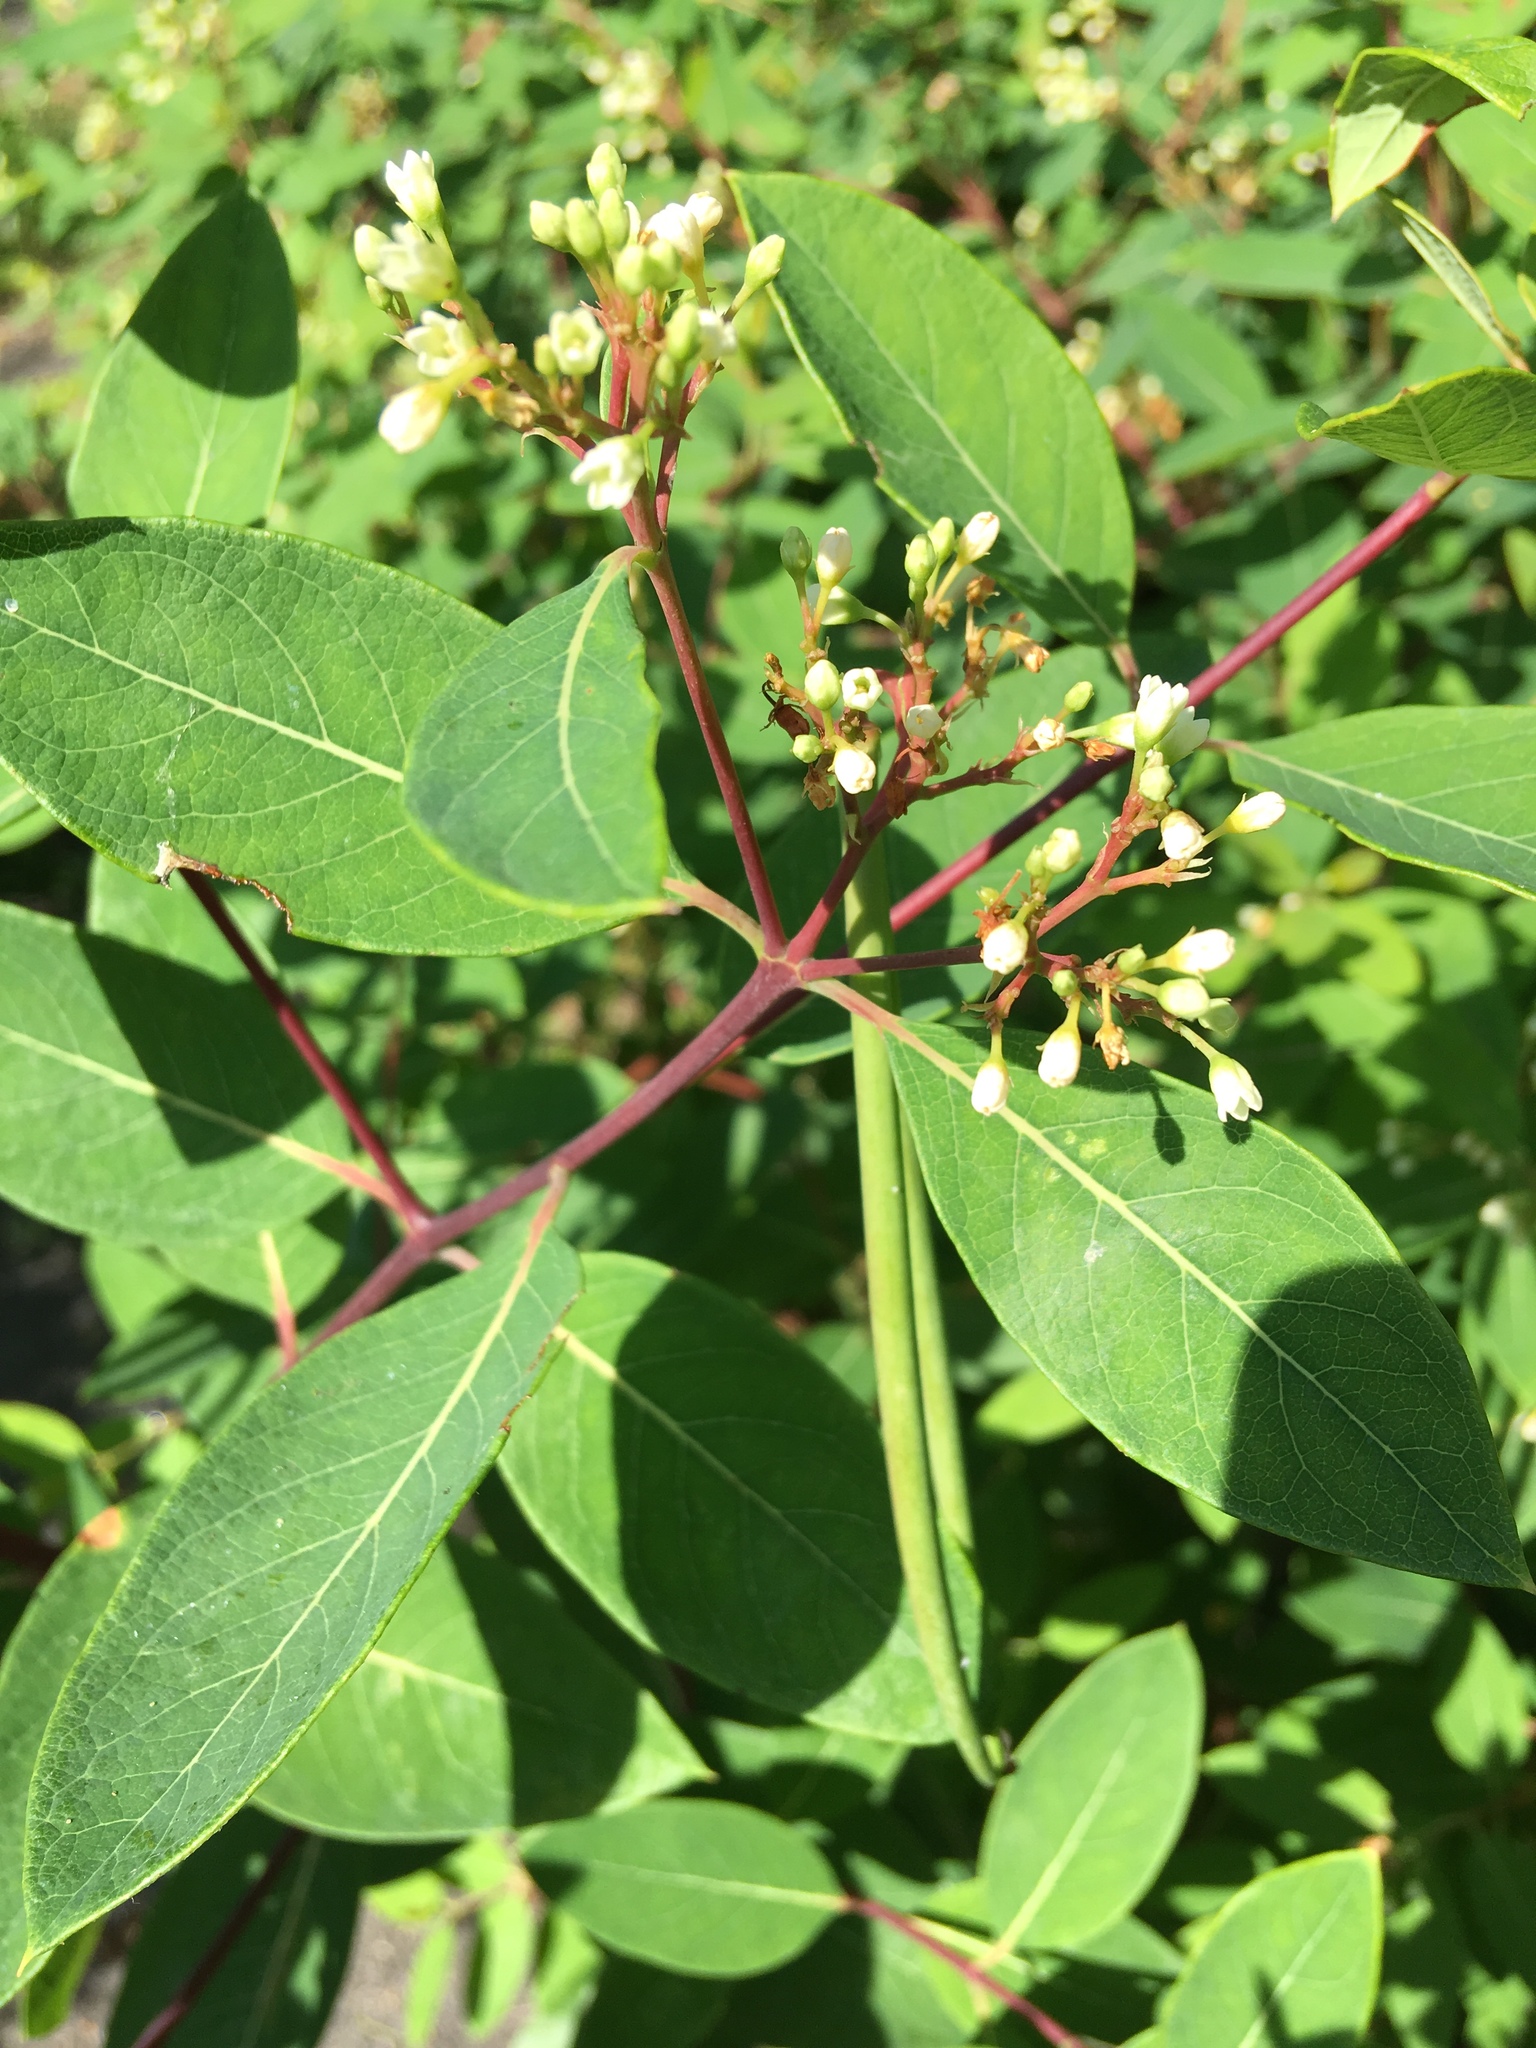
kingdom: Plantae
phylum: Tracheophyta
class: Magnoliopsida
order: Gentianales
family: Apocynaceae
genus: Apocynum
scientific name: Apocynum cannabinum
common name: Hemp dogbane
